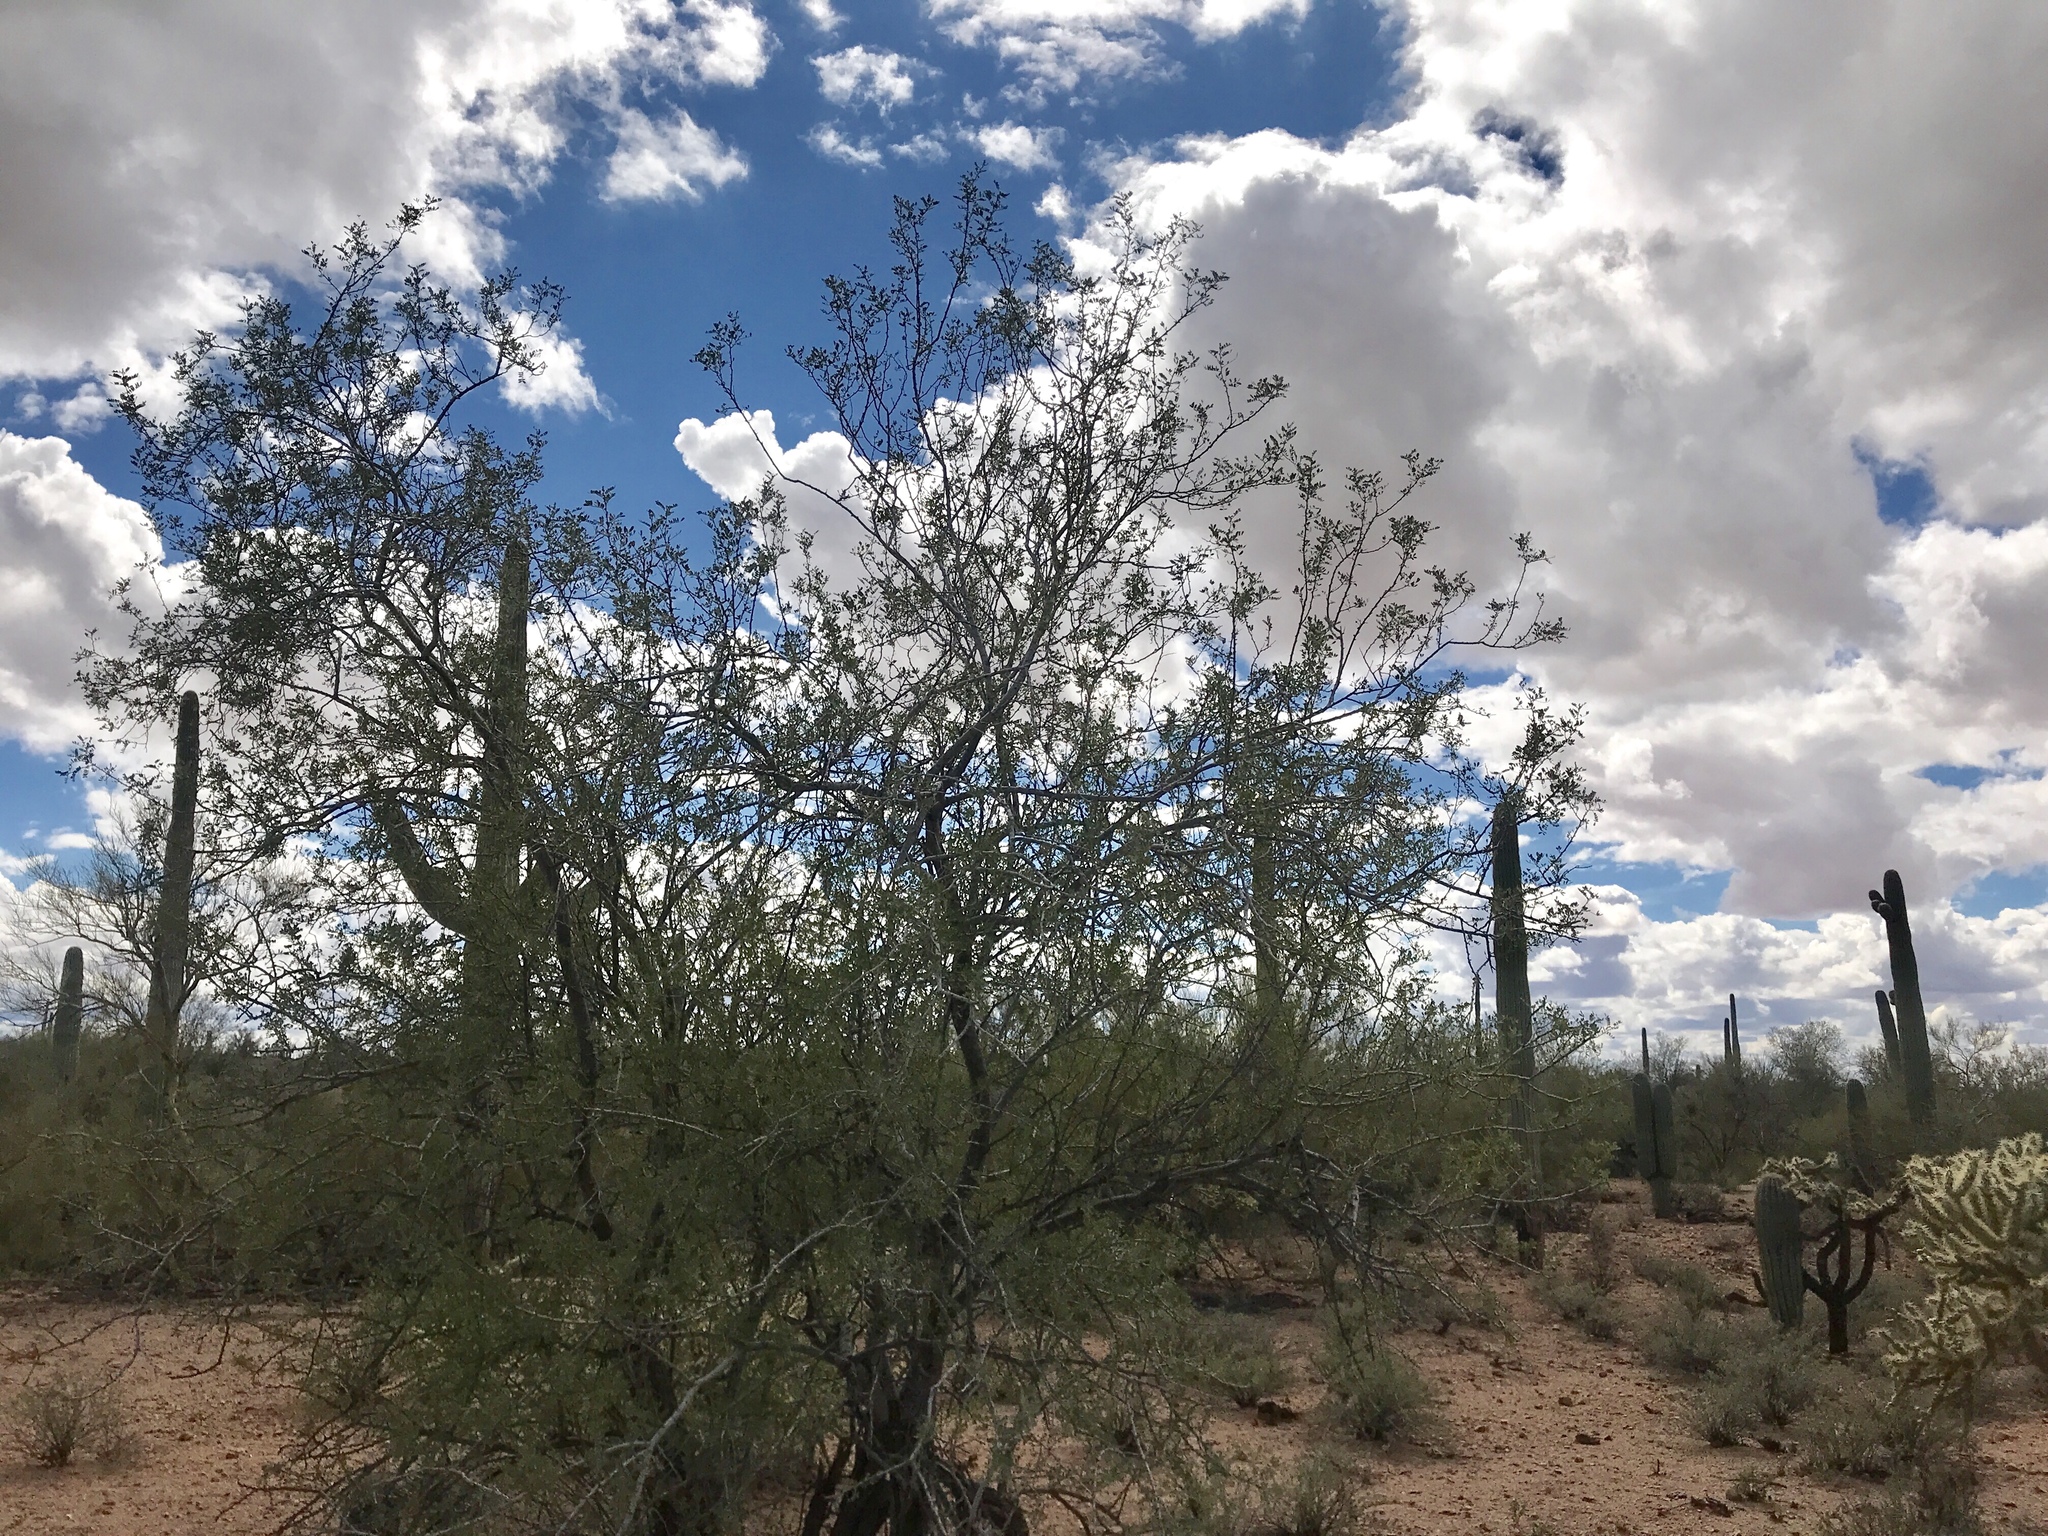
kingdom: Plantae
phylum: Tracheophyta
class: Magnoliopsida
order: Fabales
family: Fabaceae
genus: Olneya
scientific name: Olneya tesota
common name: Desert ironwood
